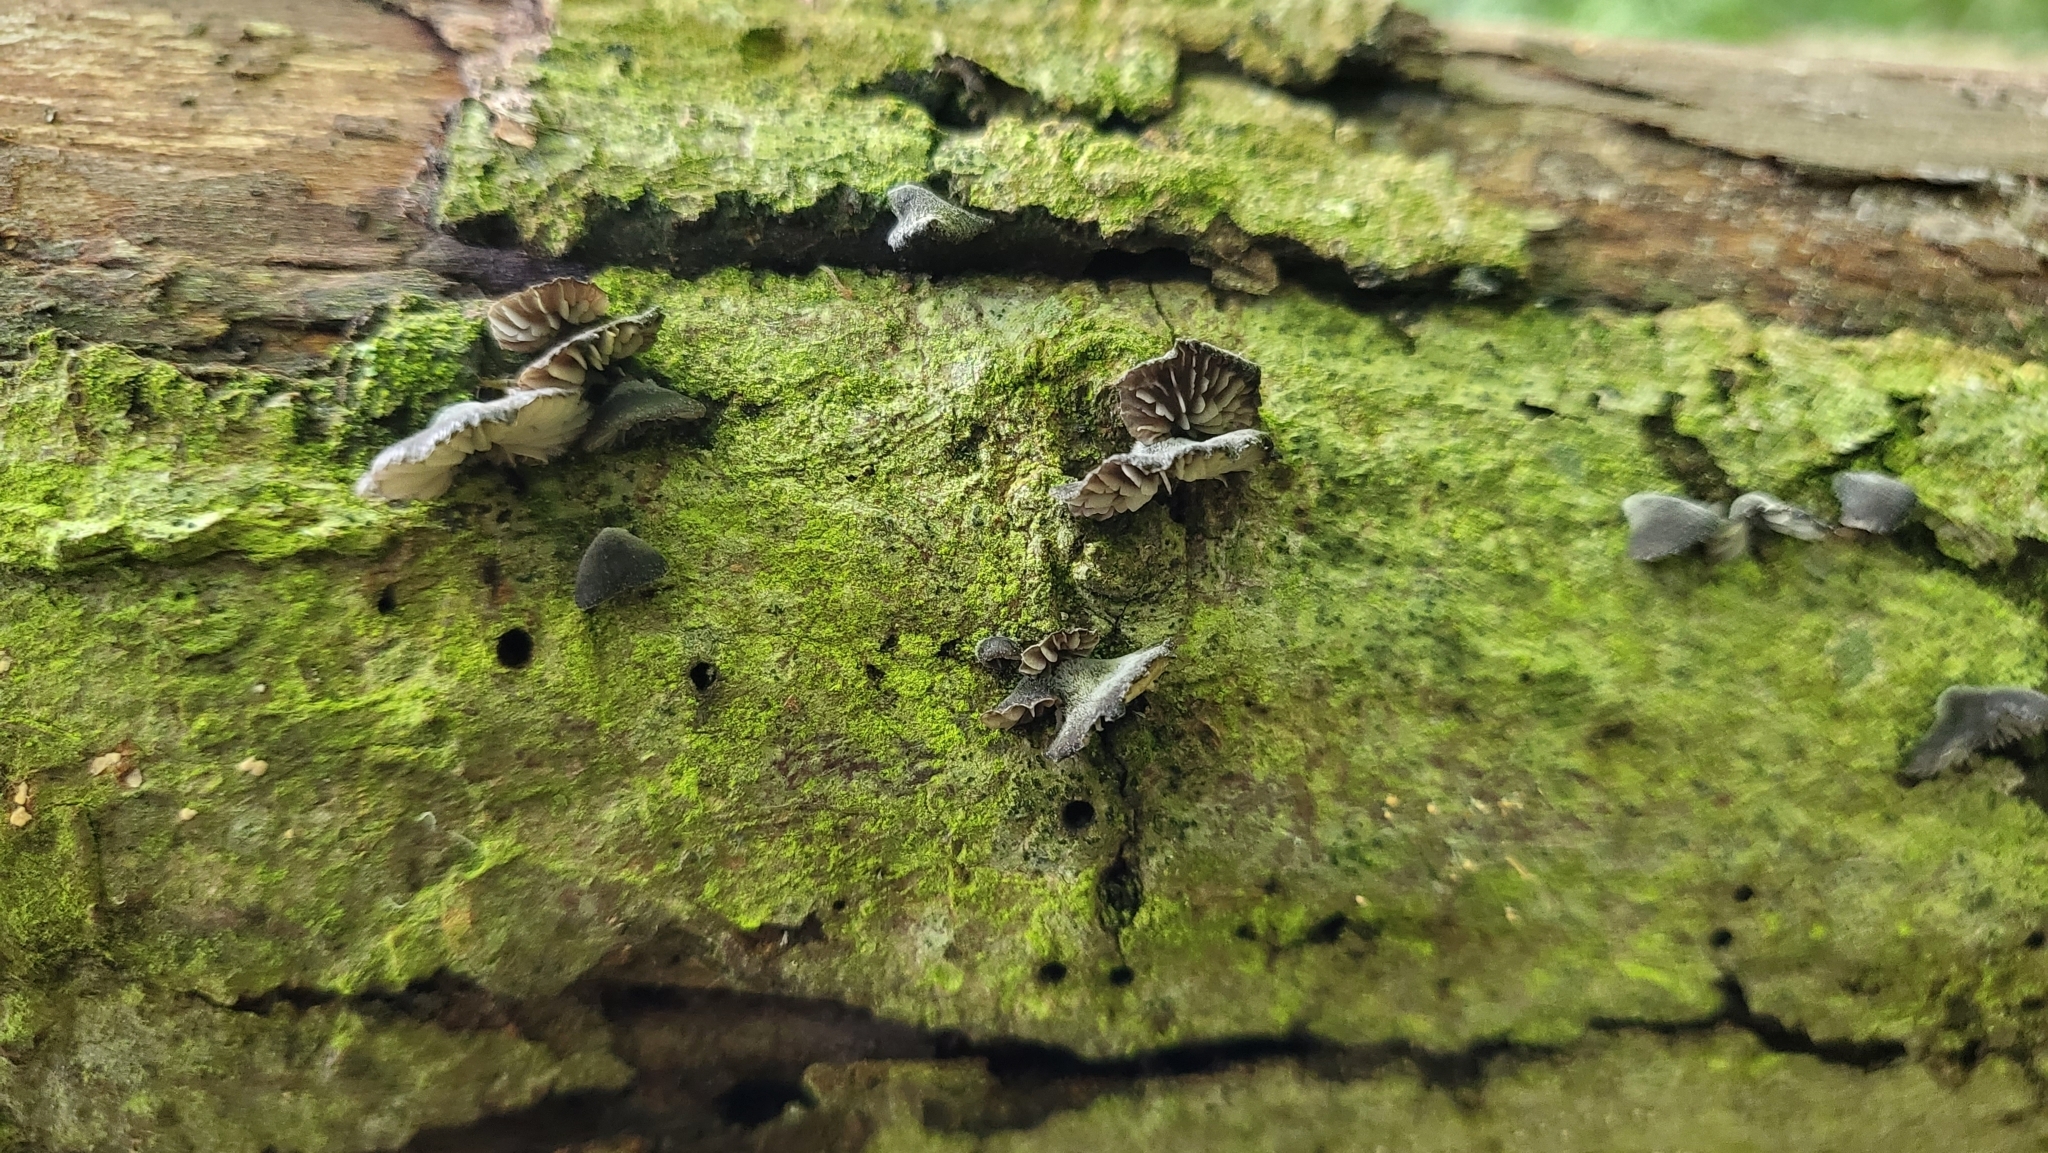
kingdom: Fungi
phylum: Basidiomycota
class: Agaricomycetes
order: Agaricales
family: Pleurotaceae
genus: Resupinatus
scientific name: Resupinatus applicatus
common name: Smoked oysterling
